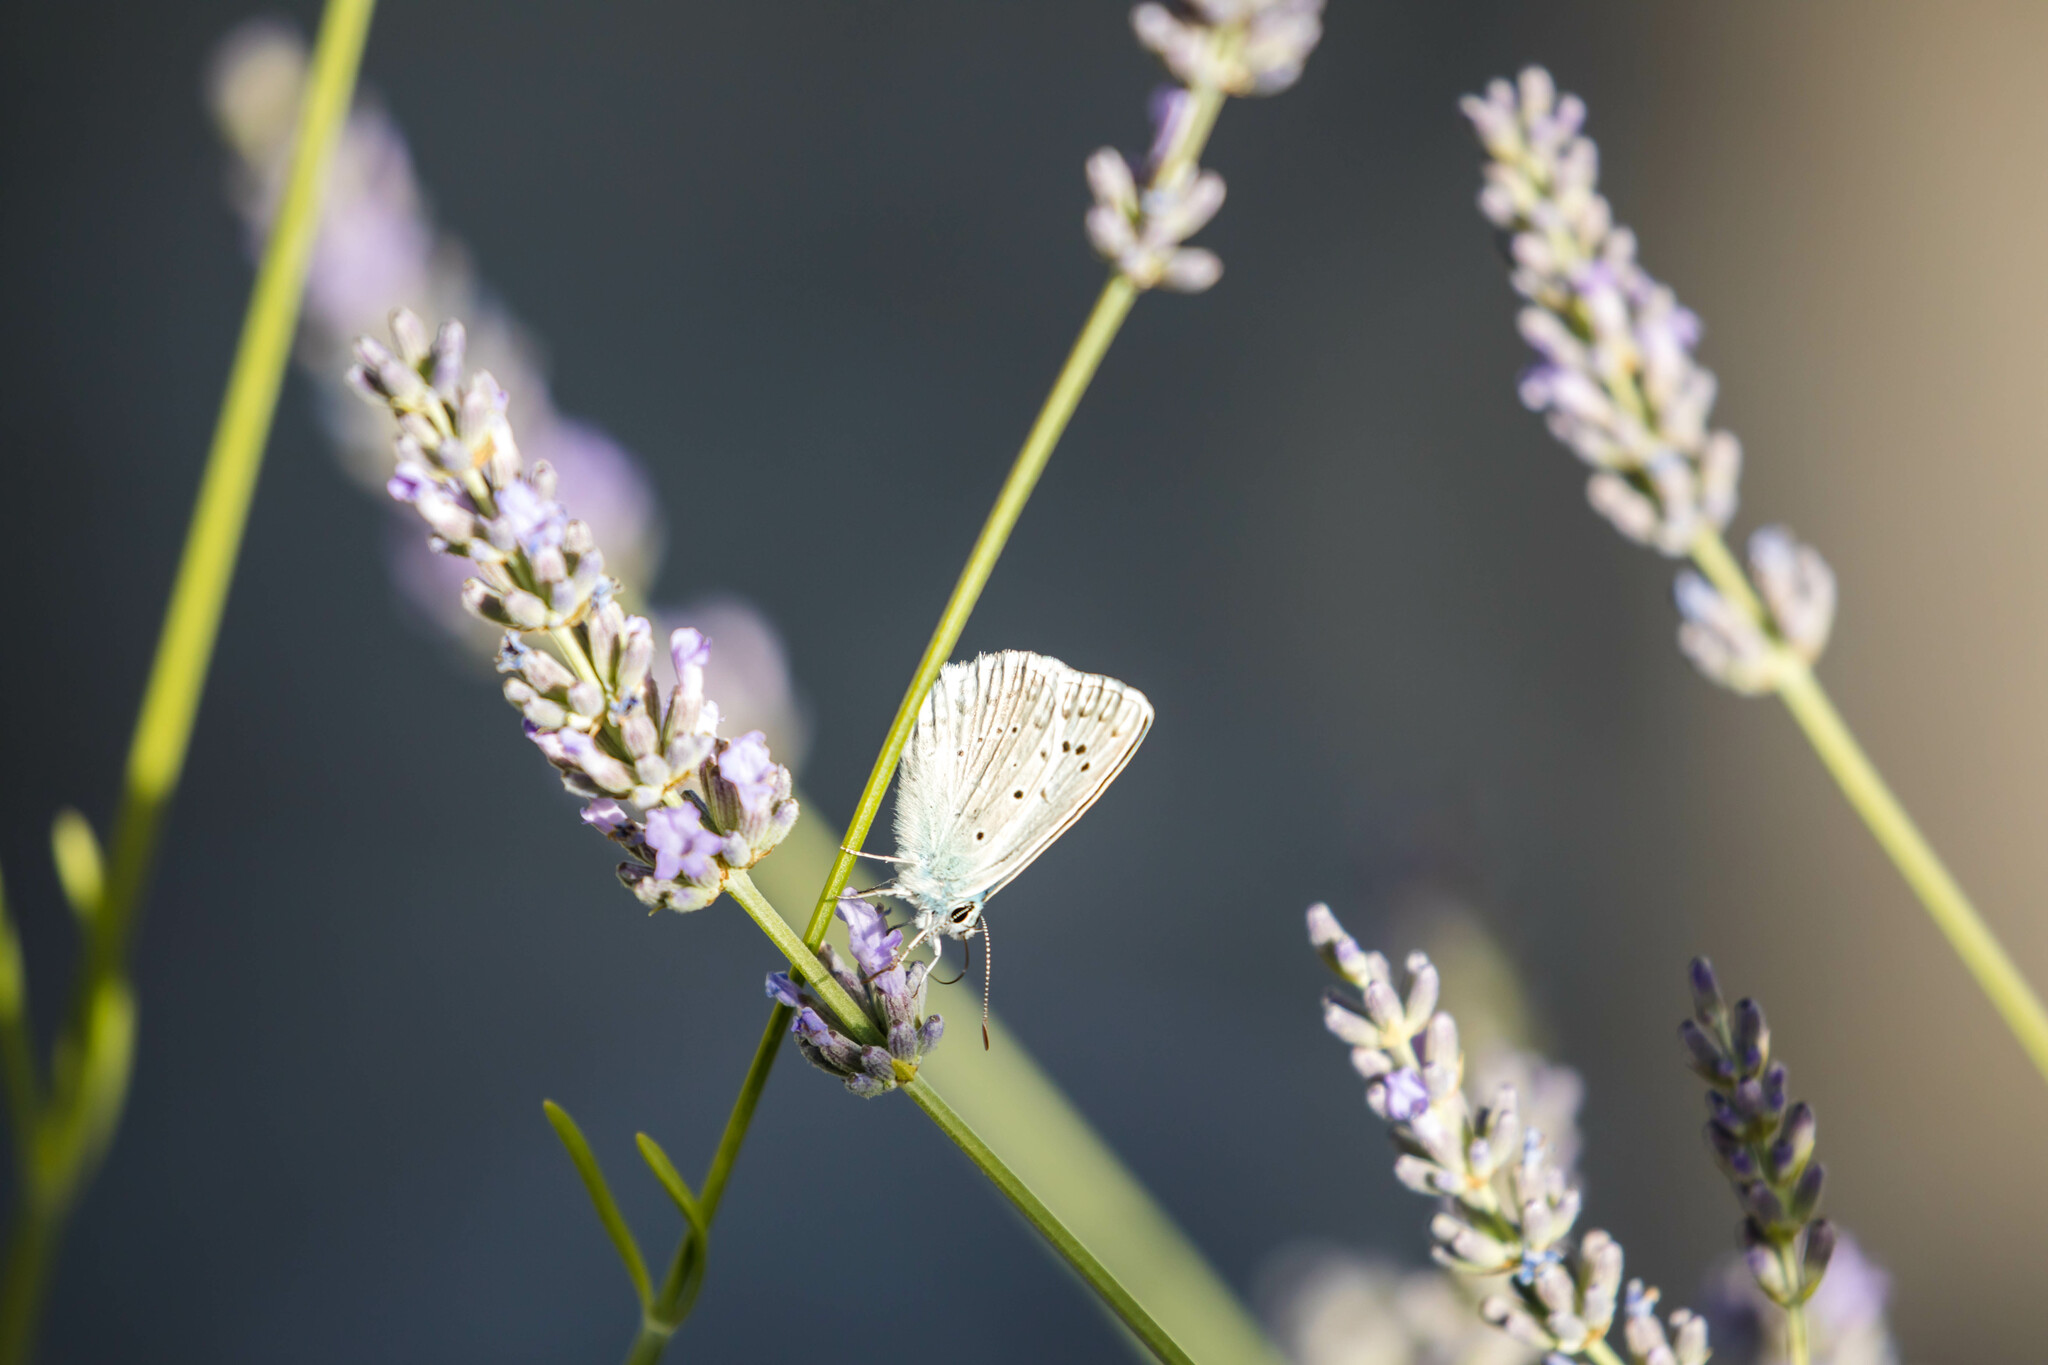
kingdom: Animalia
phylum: Arthropoda
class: Insecta
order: Lepidoptera
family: Lycaenidae
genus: Polyommatus
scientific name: Polyommatus daphnis
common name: Meleager's blue
